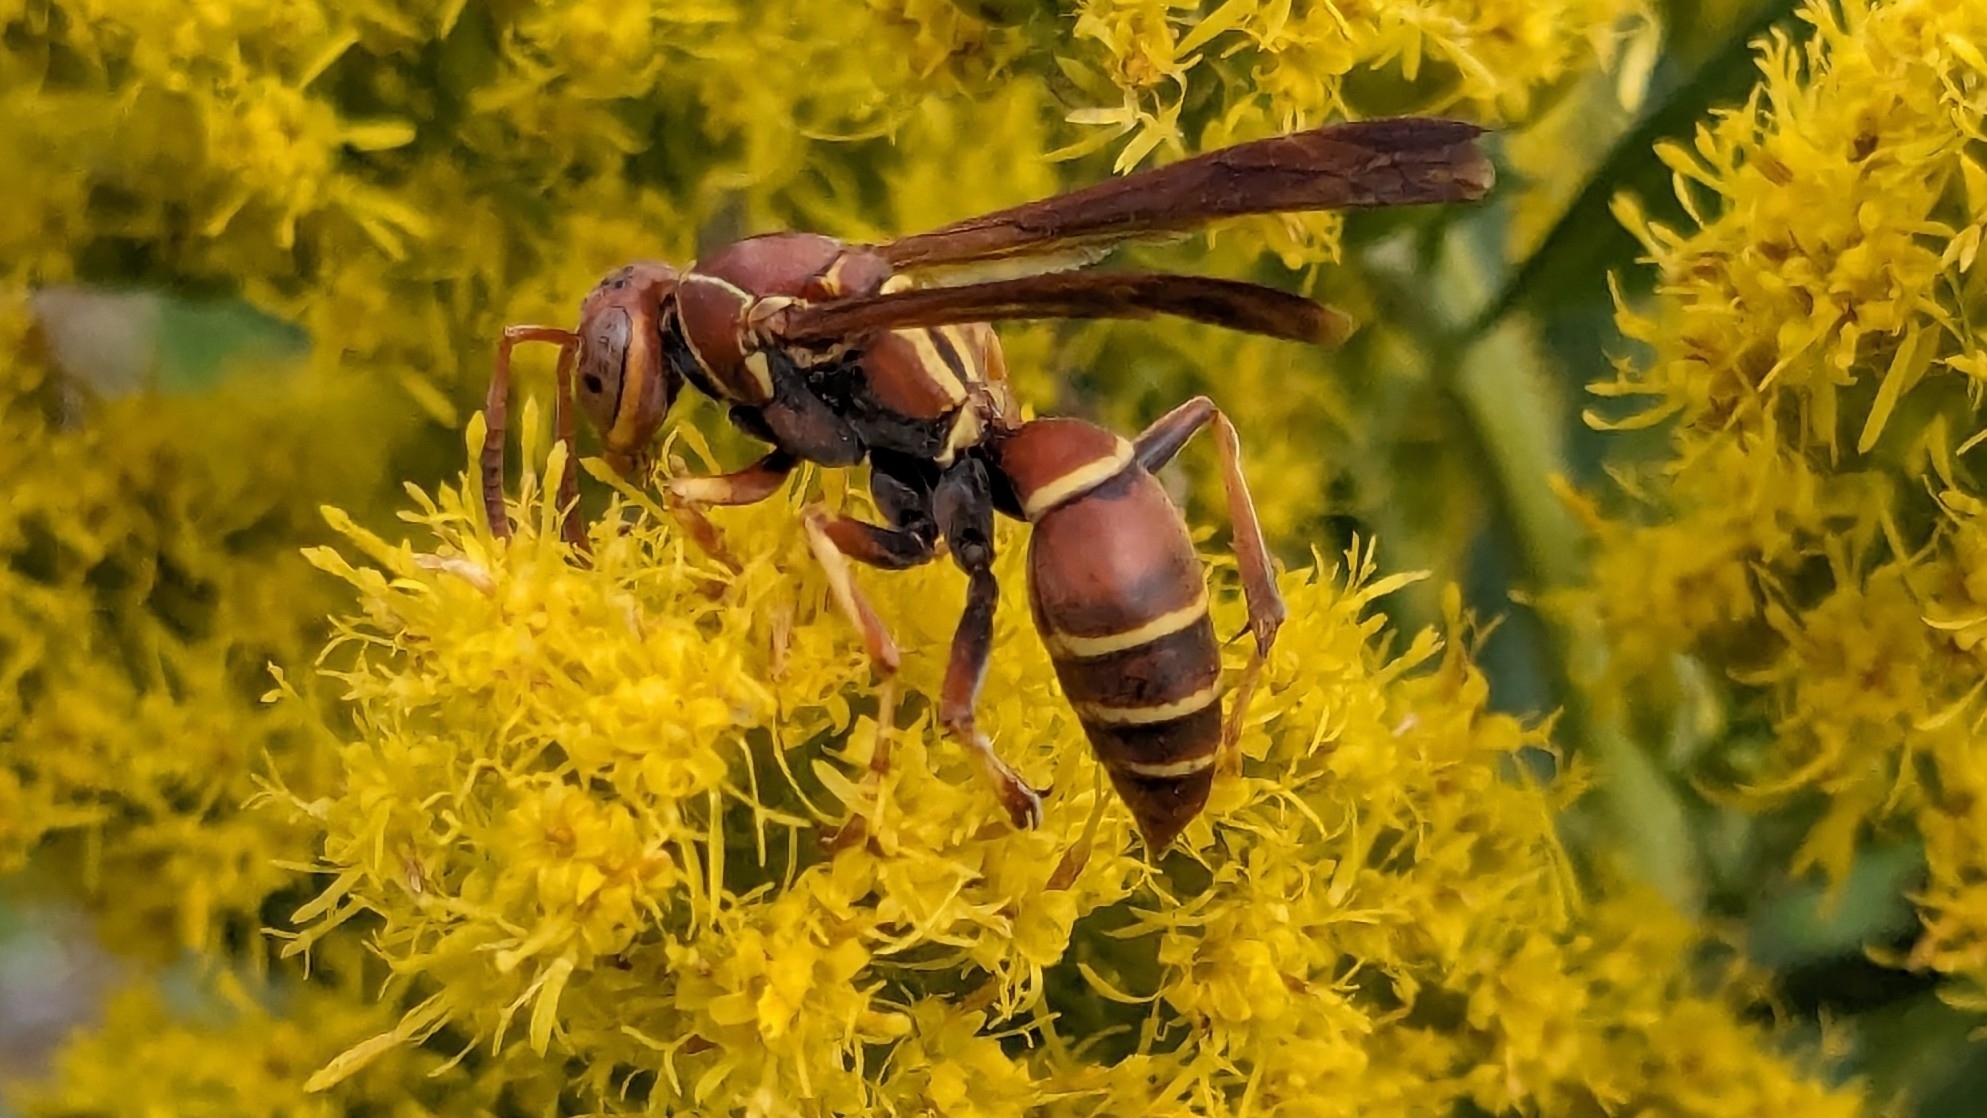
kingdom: Animalia
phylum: Arthropoda
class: Insecta
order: Hymenoptera
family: Eumenidae
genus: Polistes
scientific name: Polistes dorsalis
